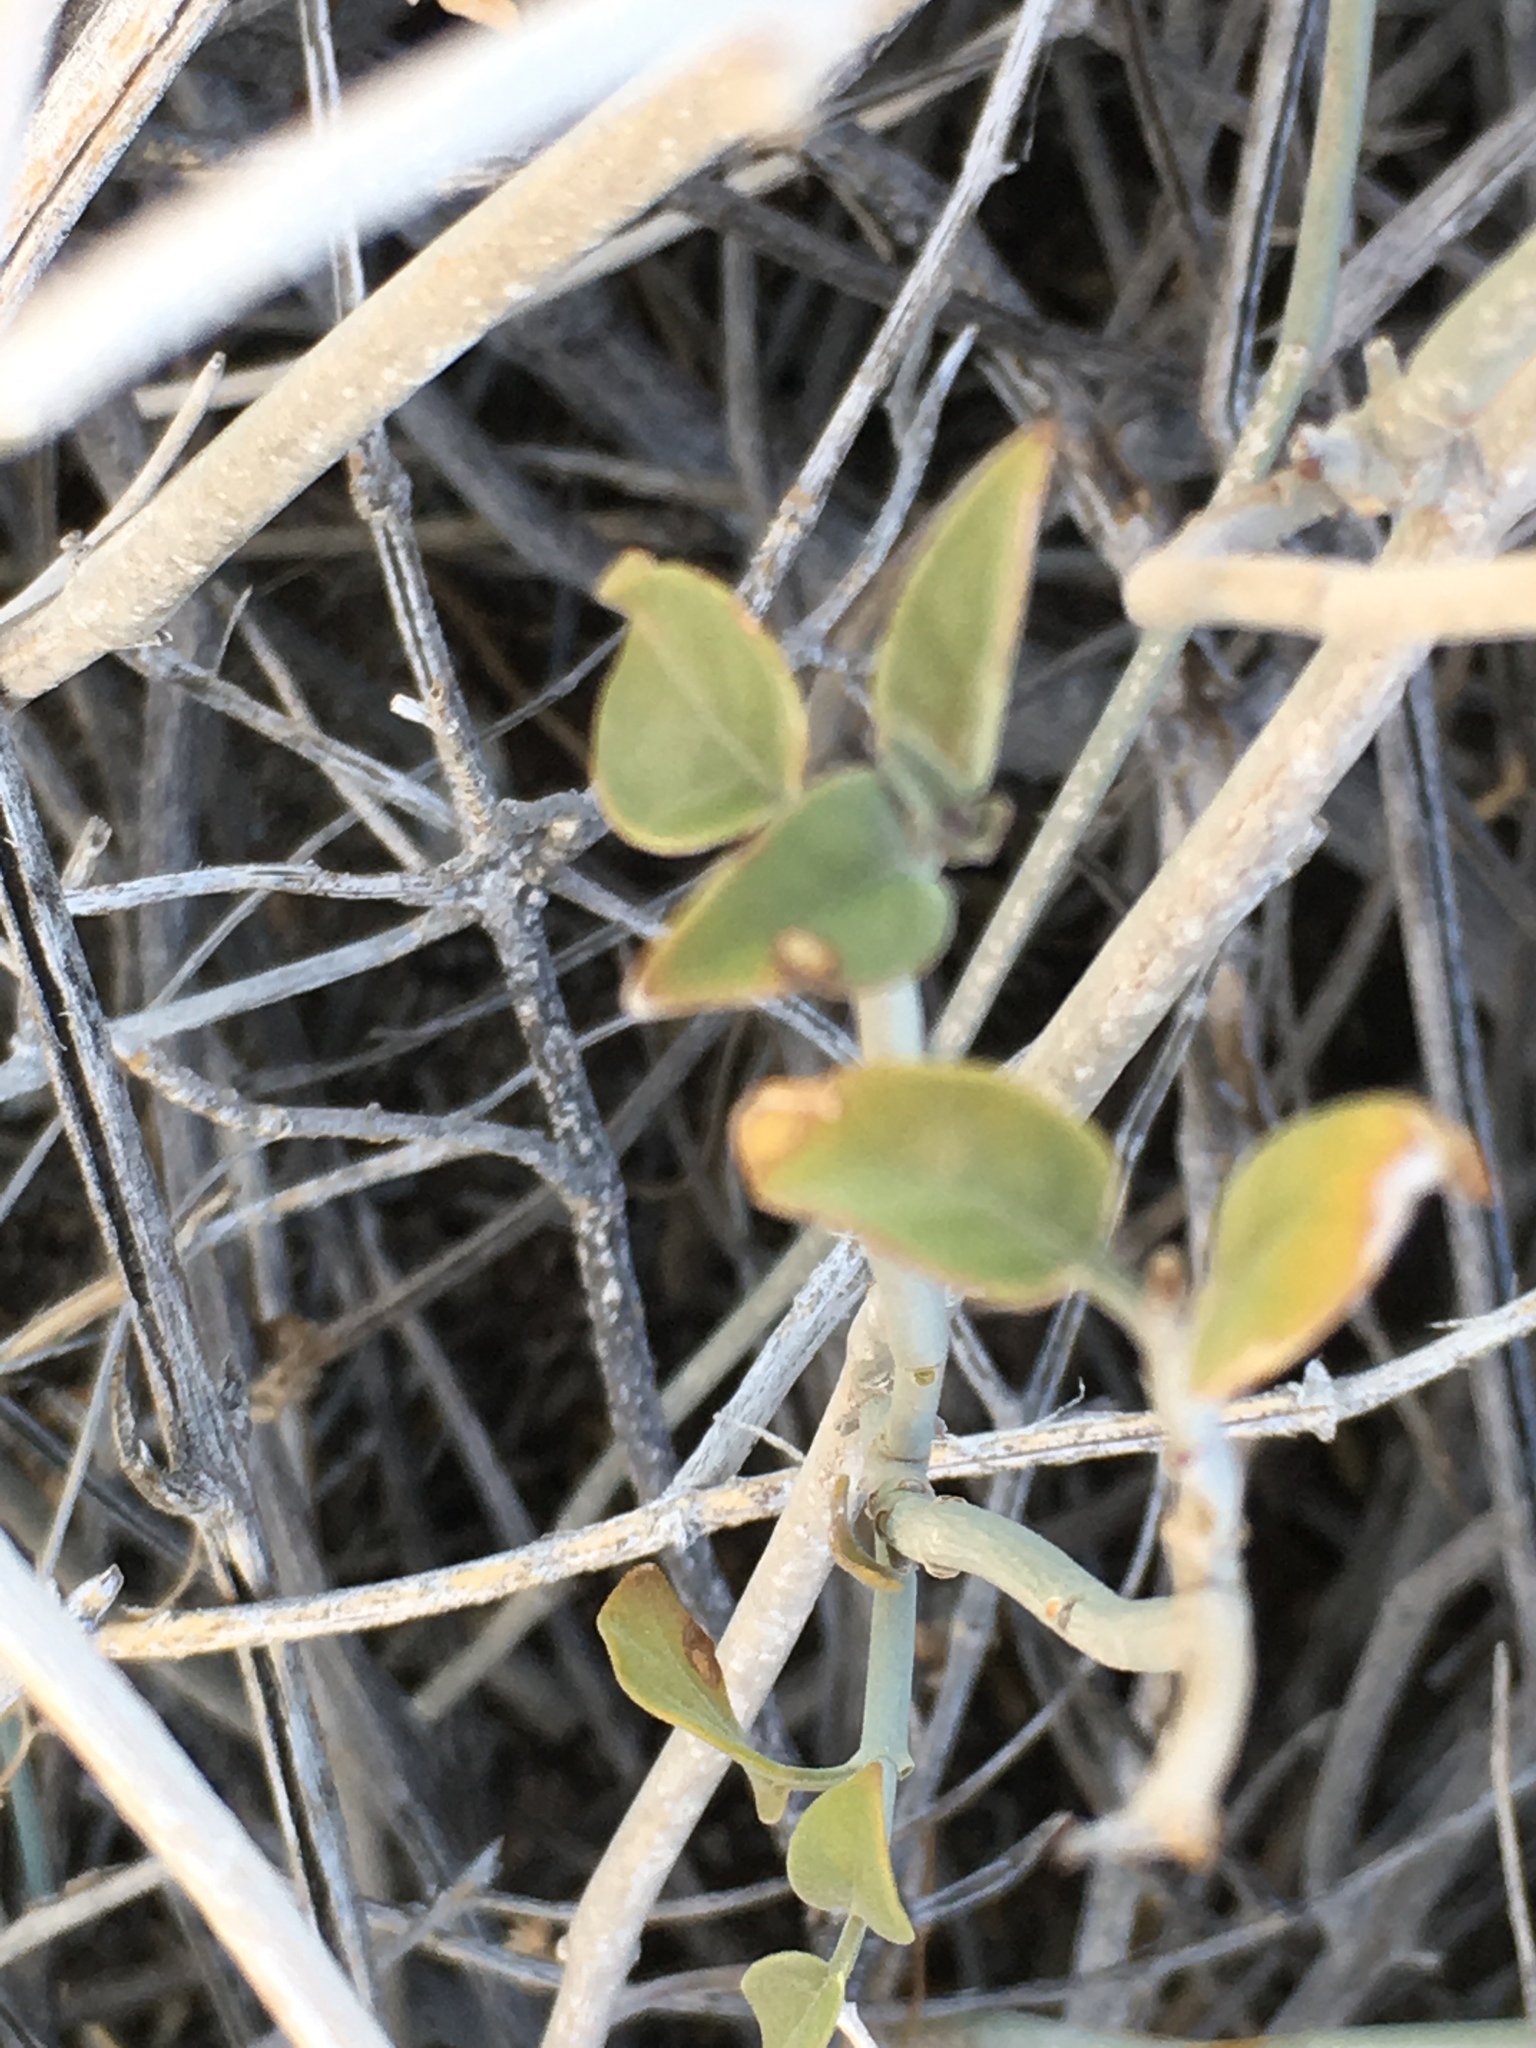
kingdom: Plantae
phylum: Tracheophyta
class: Magnoliopsida
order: Lamiales
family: Acanthaceae
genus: Justicia
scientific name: Justicia californica
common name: Chuparosa-honeysuckle
